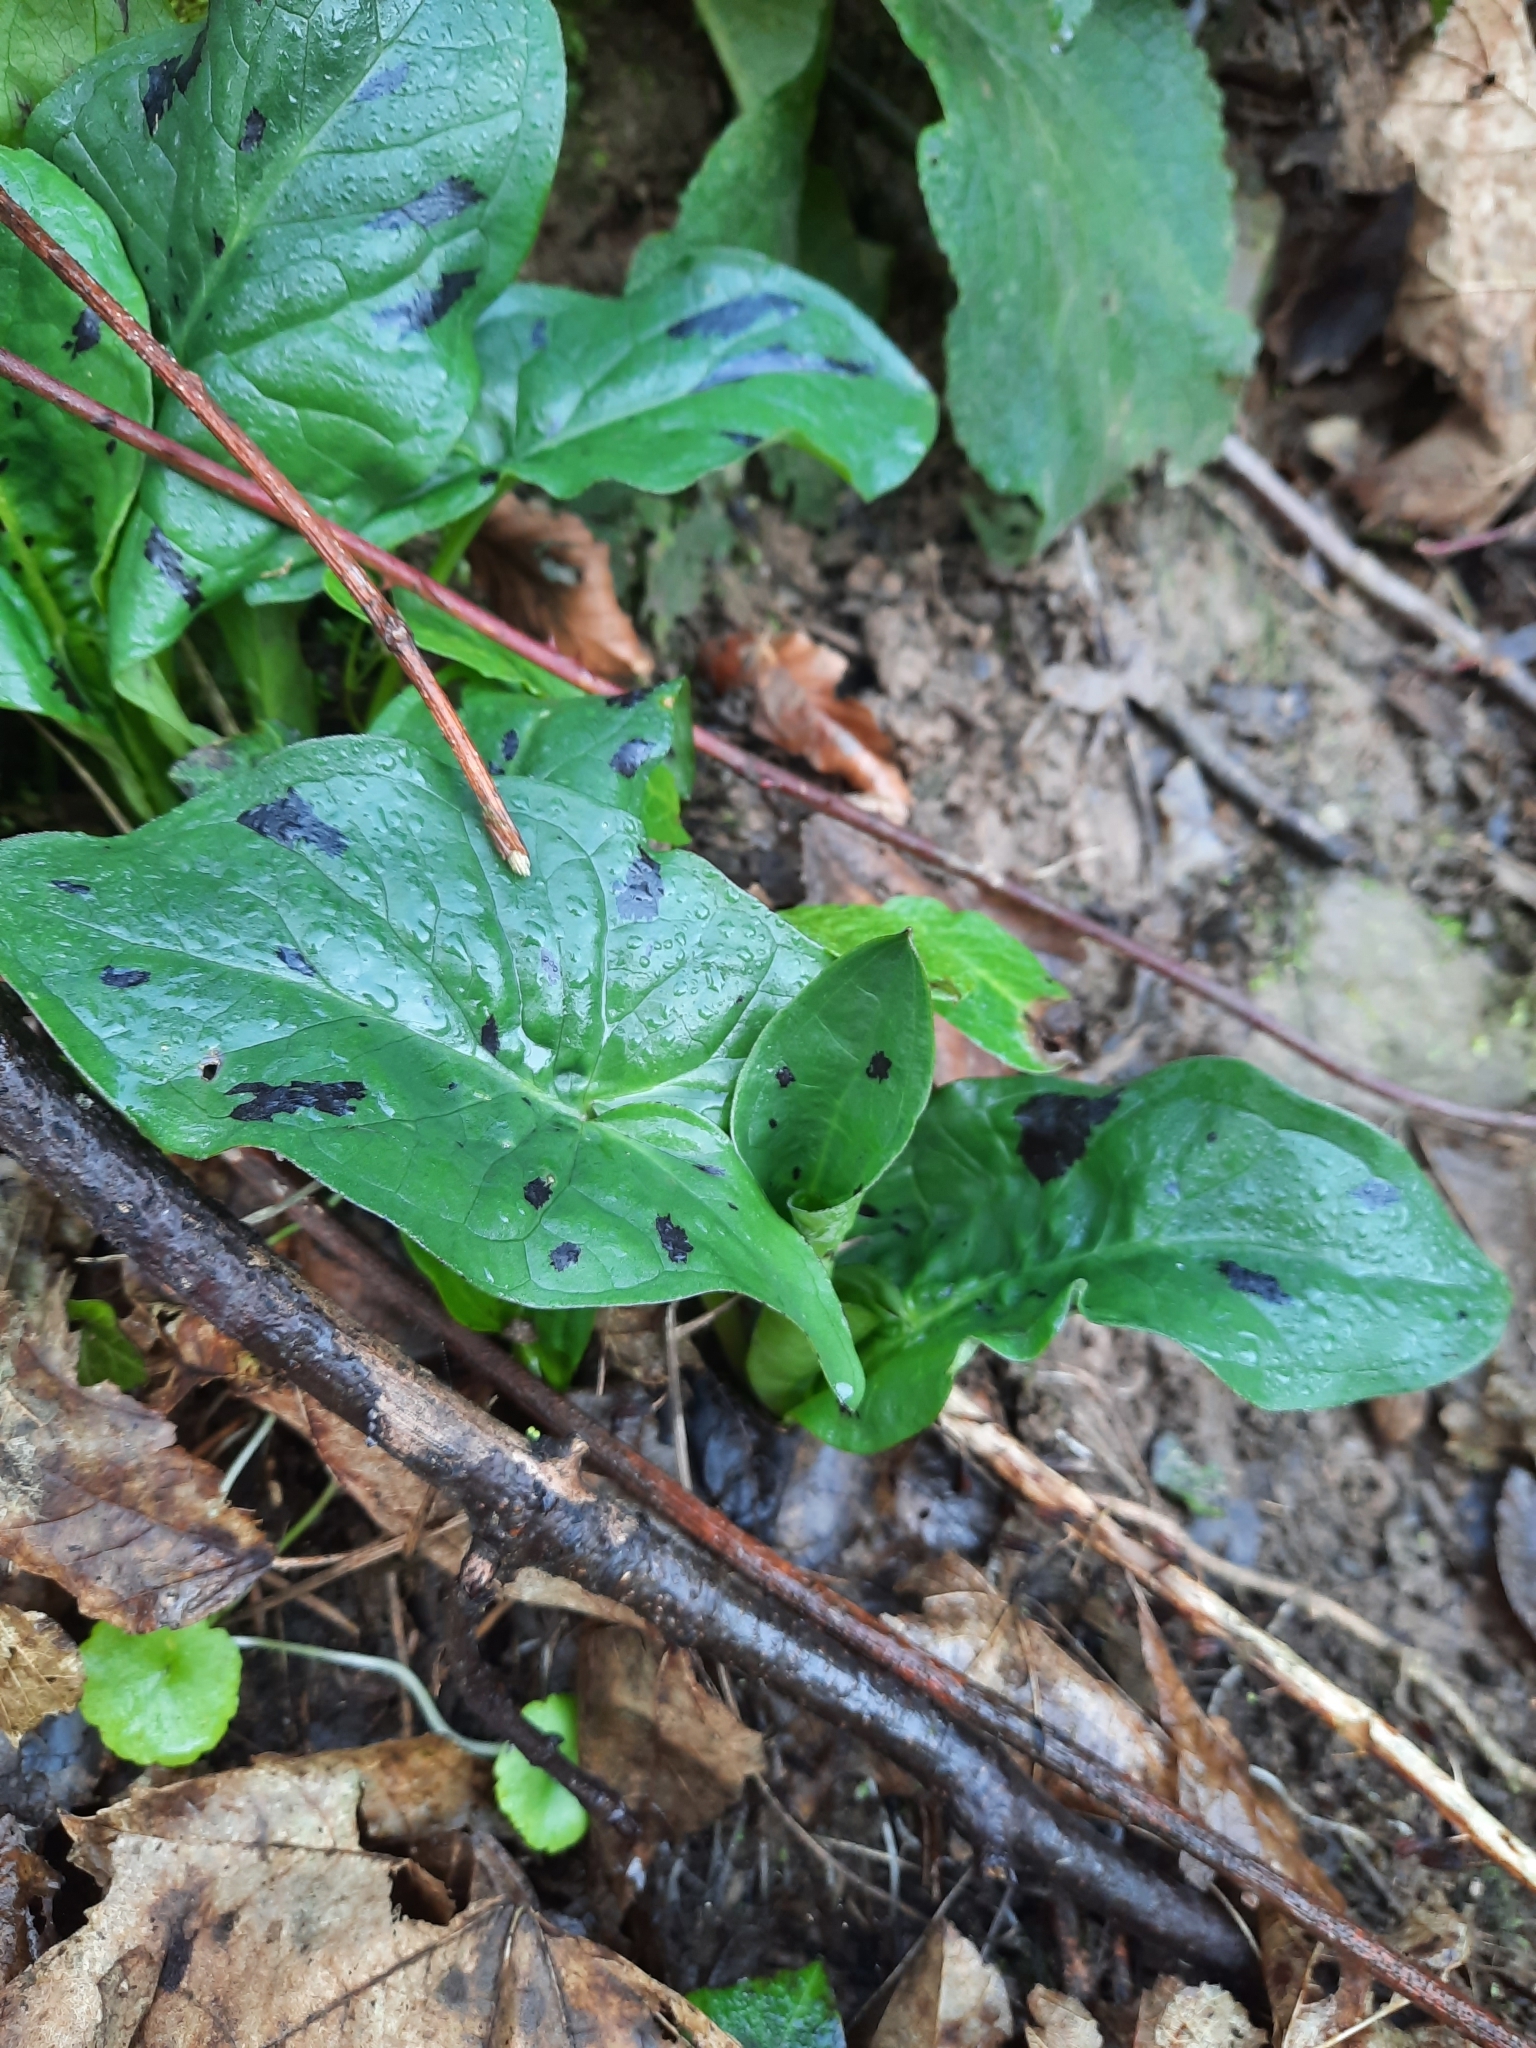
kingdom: Plantae
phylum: Tracheophyta
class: Liliopsida
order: Alismatales
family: Araceae
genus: Arum
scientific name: Arum maculatum
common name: Lords-and-ladies
